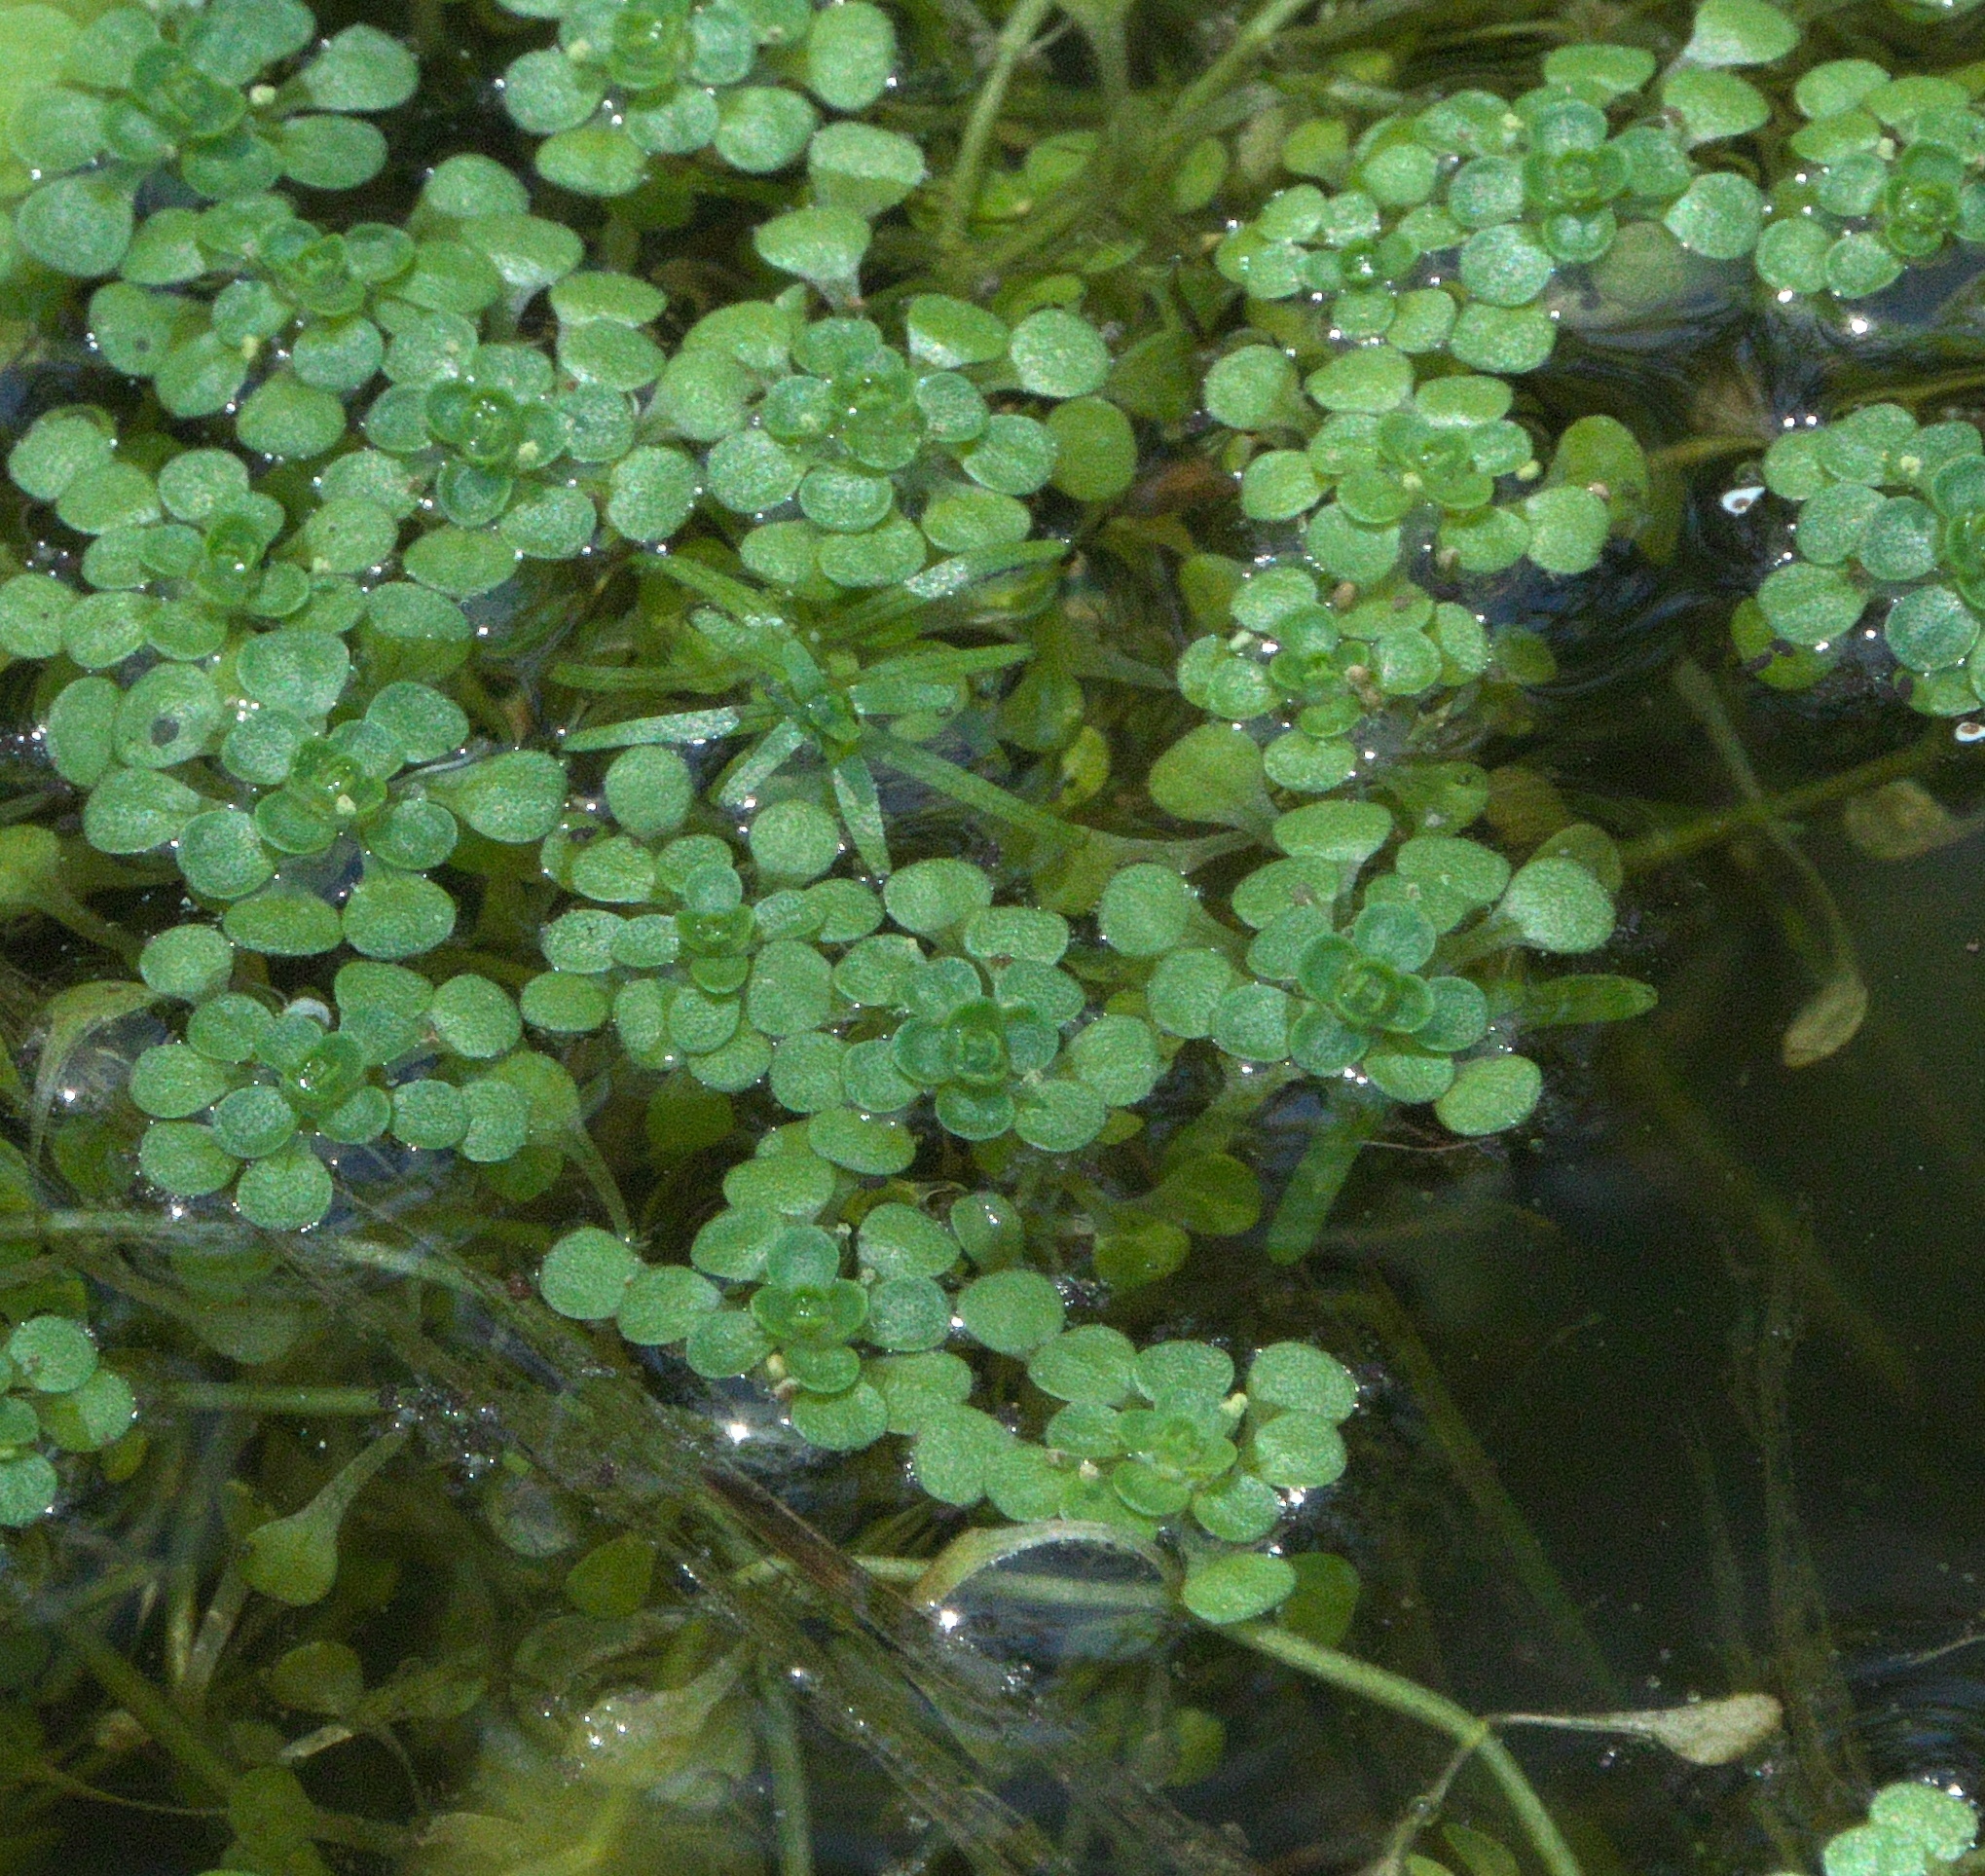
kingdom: Plantae
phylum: Tracheophyta
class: Magnoliopsida
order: Lamiales
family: Plantaginaceae
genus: Callitriche
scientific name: Callitriche heterophylla
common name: Two-headed water-starwort
